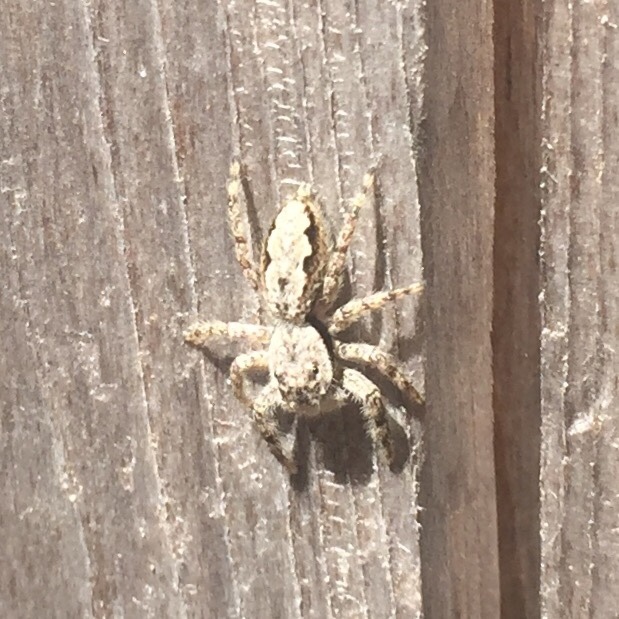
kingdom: Animalia
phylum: Arthropoda
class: Arachnida
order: Araneae
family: Salticidae
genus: Platycryptus
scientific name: Platycryptus undatus
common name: Tan jumping spider
